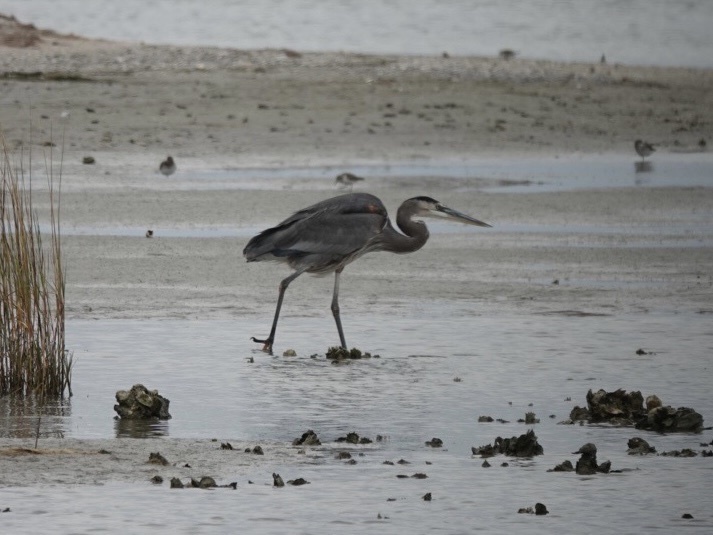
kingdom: Animalia
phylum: Chordata
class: Aves
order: Pelecaniformes
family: Ardeidae
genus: Ardea
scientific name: Ardea herodias
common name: Great blue heron
